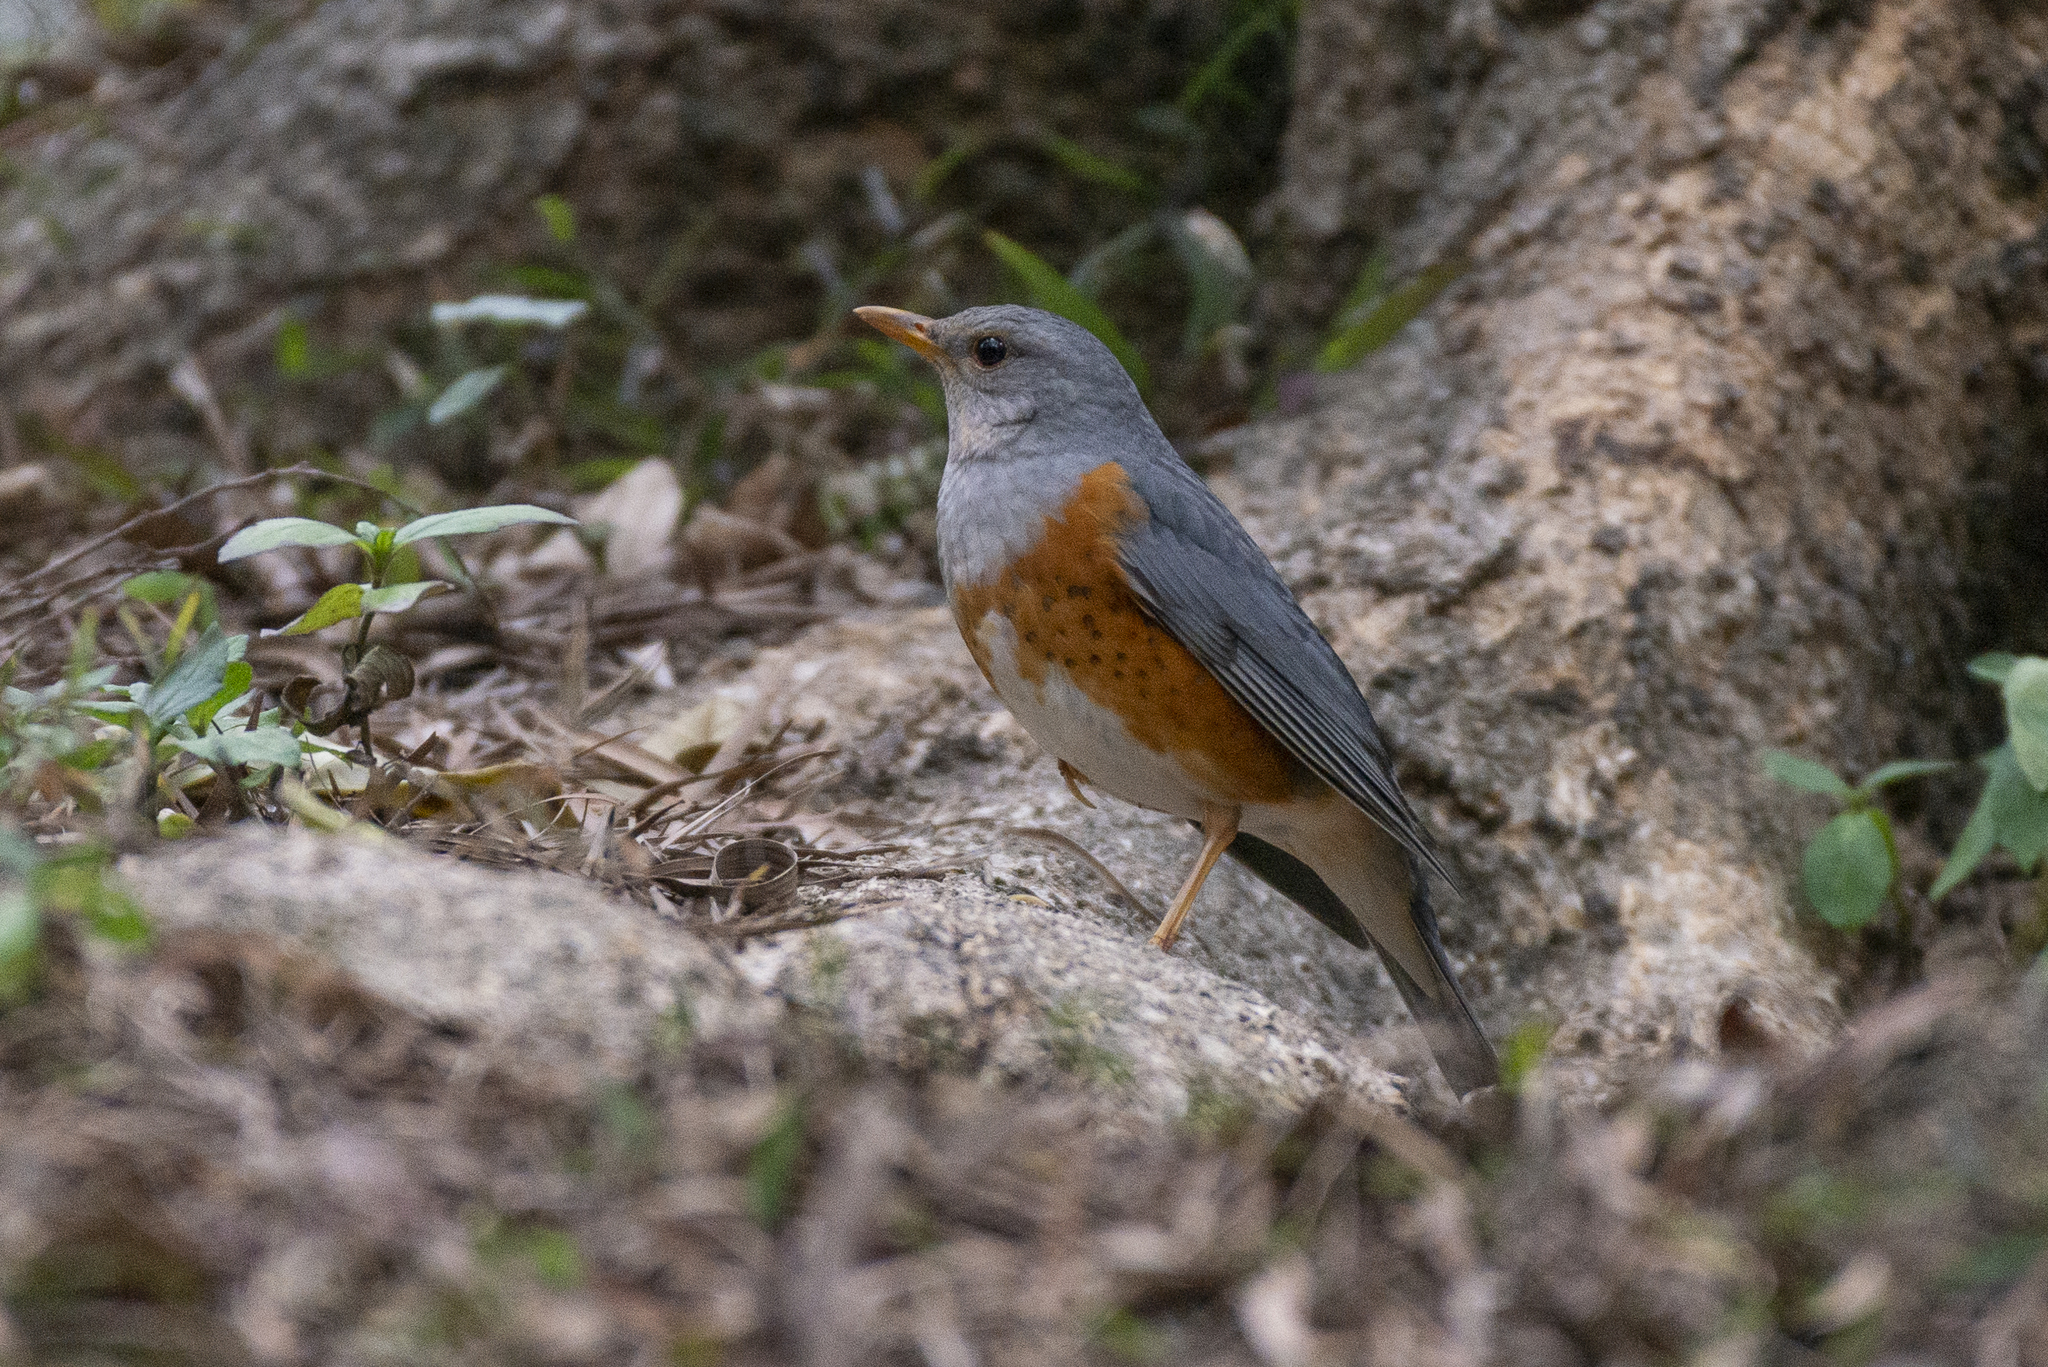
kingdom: Animalia
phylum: Chordata
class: Aves
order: Passeriformes
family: Turdidae
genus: Turdus
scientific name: Turdus hortulorum
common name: Grey-backed thrush
